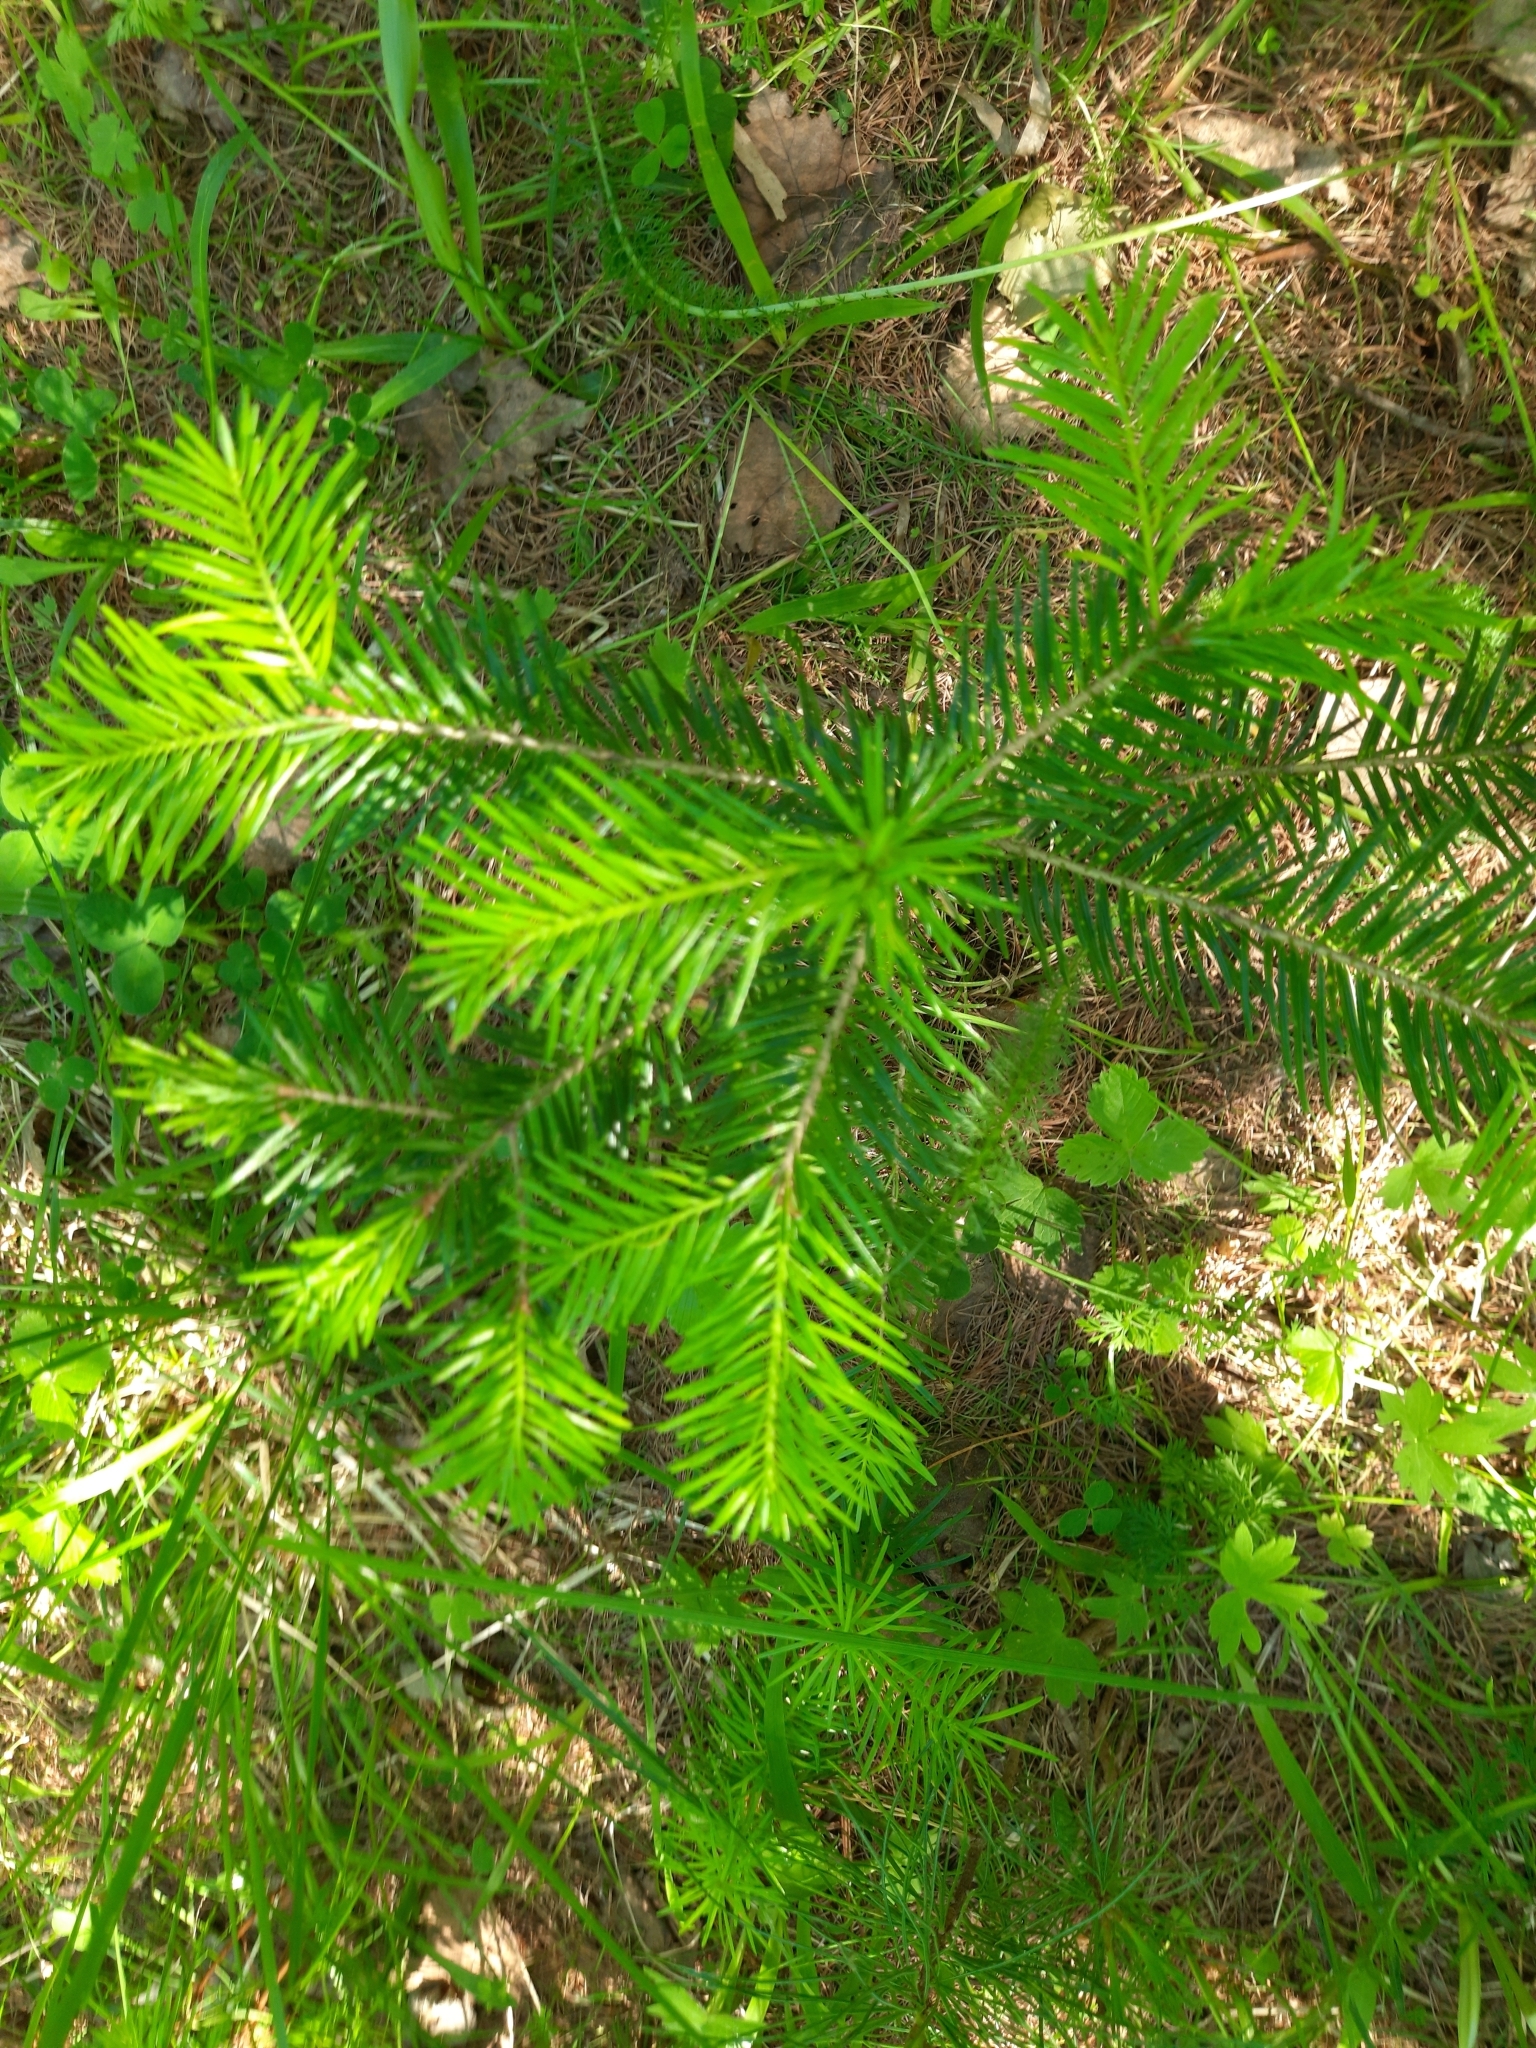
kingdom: Plantae
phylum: Tracheophyta
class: Pinopsida
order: Pinales
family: Pinaceae
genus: Abies
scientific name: Abies sibirica
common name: Siberian fir
